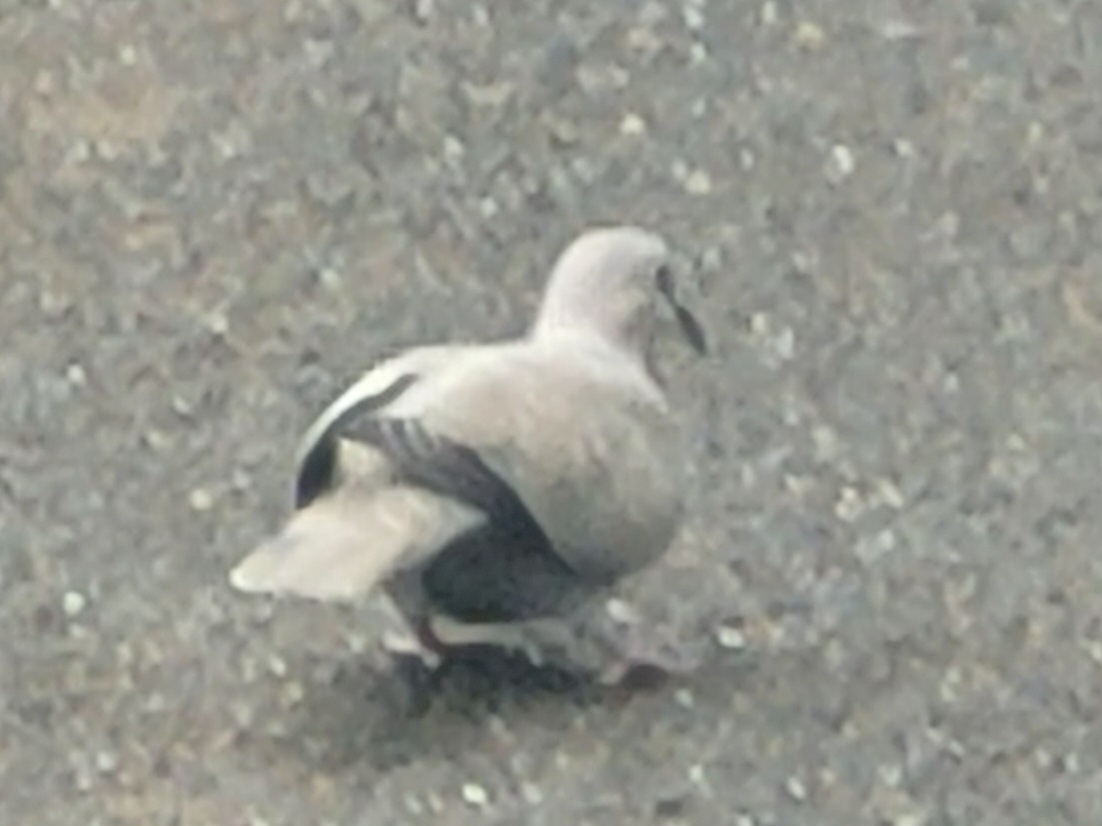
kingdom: Animalia
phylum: Chordata
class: Aves
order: Columbiformes
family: Columbidae
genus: Streptopelia
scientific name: Streptopelia decaocto
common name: Eurasian collared dove
